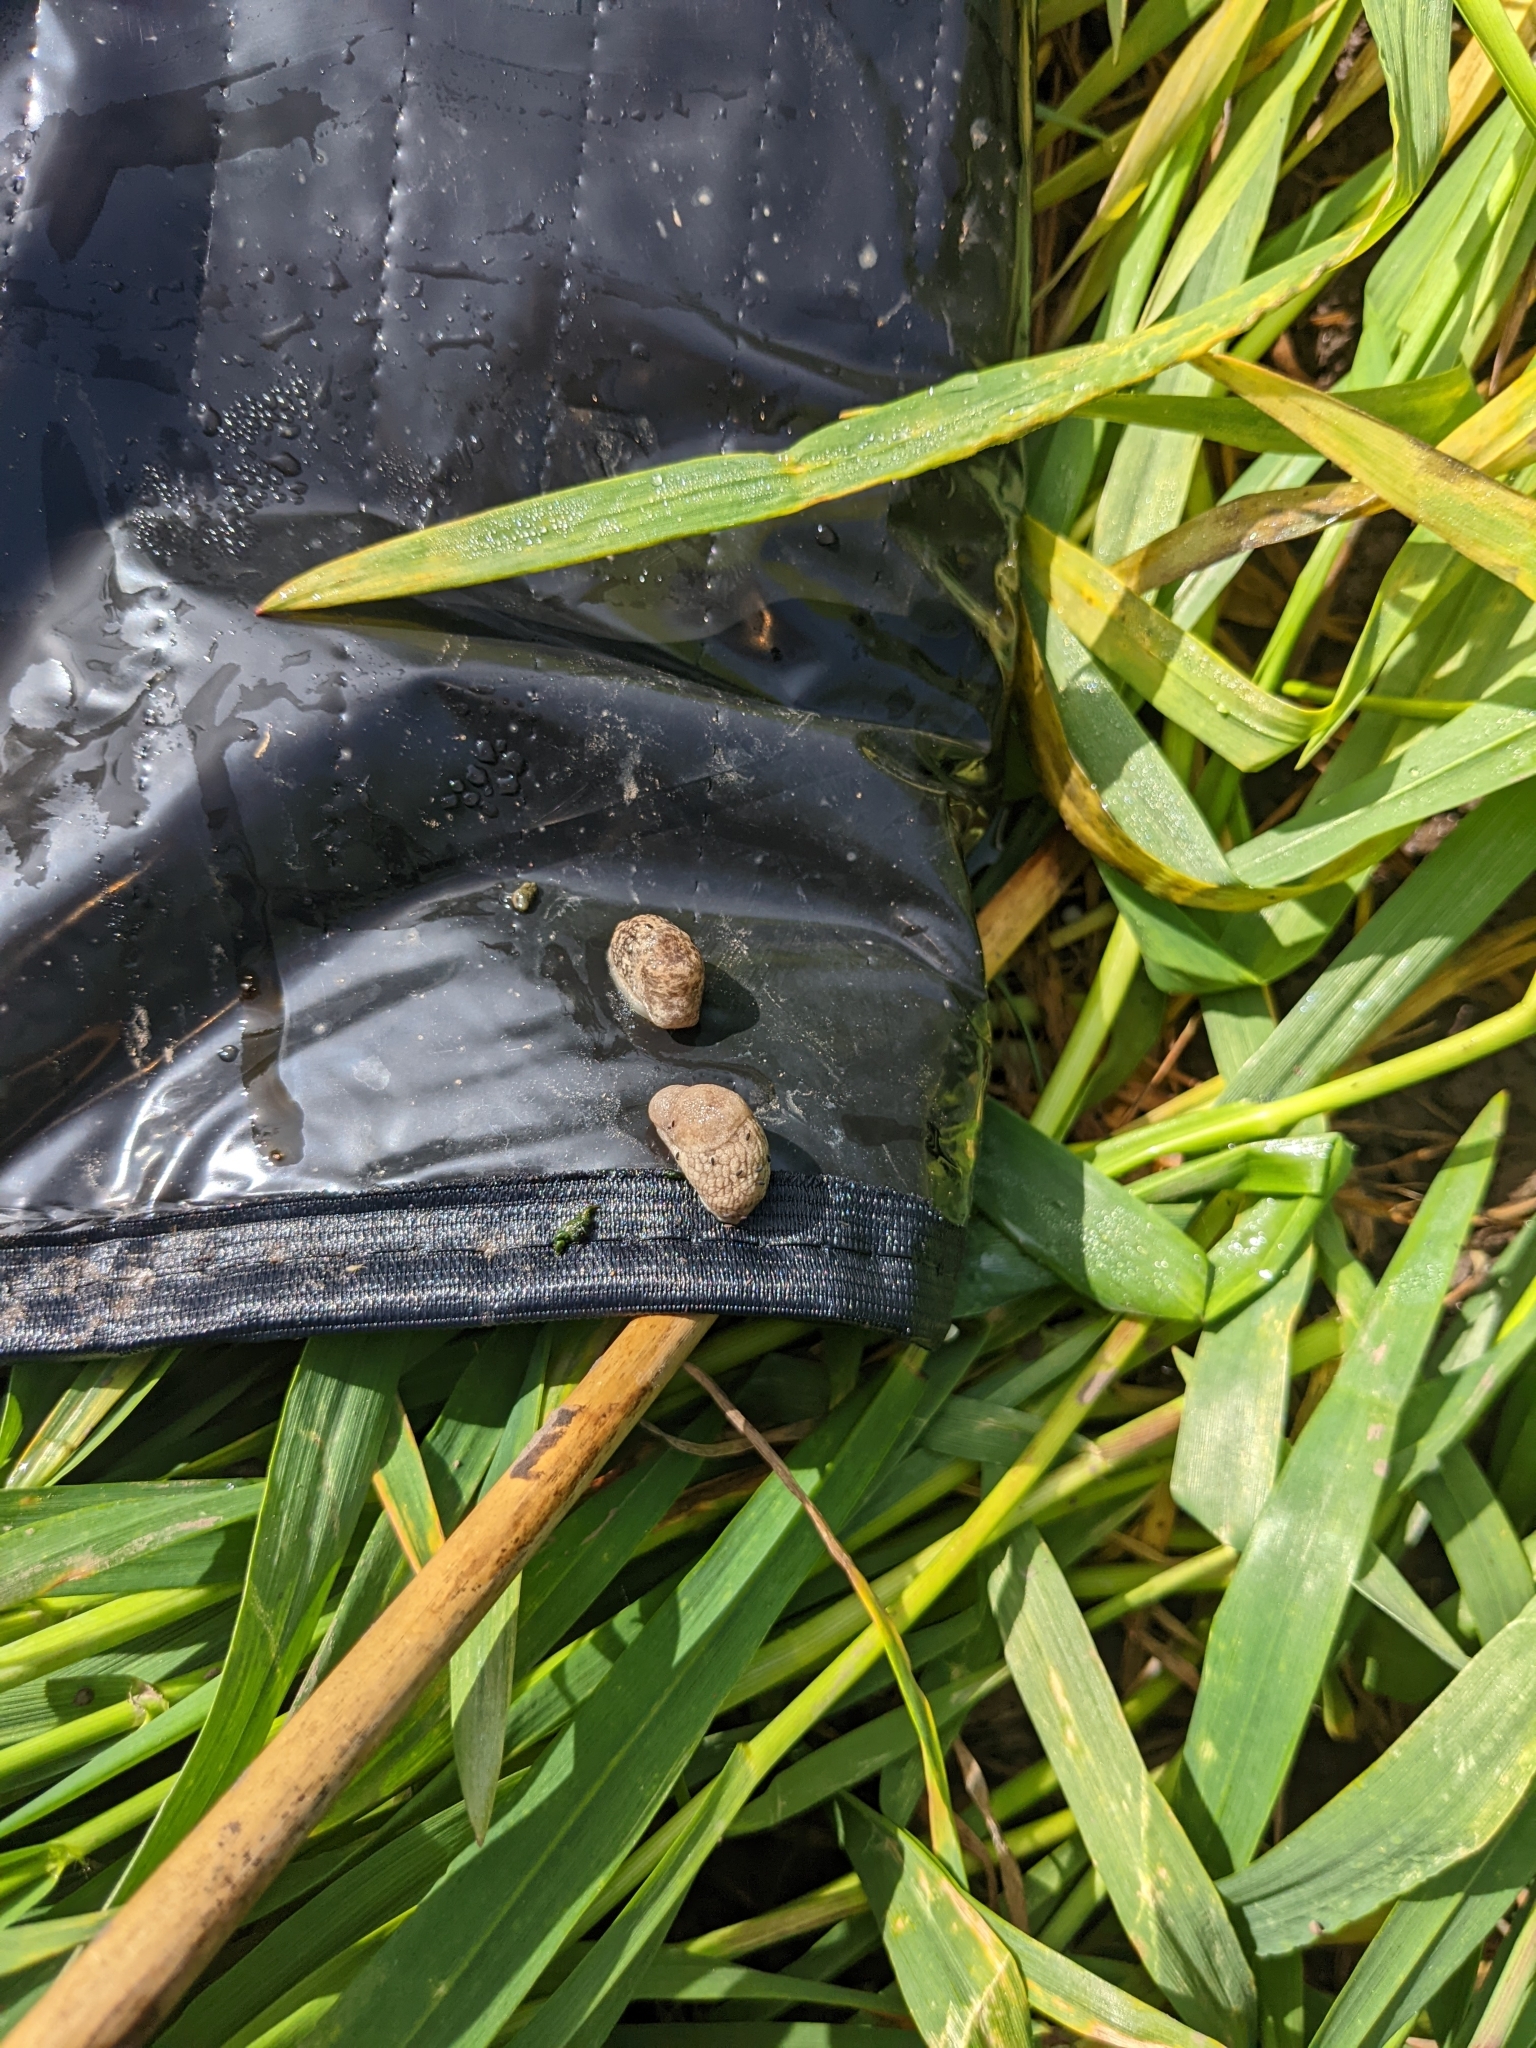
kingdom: Animalia
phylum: Mollusca
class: Gastropoda
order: Stylommatophora
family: Agriolimacidae
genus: Deroceras
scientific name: Deroceras reticulatum
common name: Gray field slug
